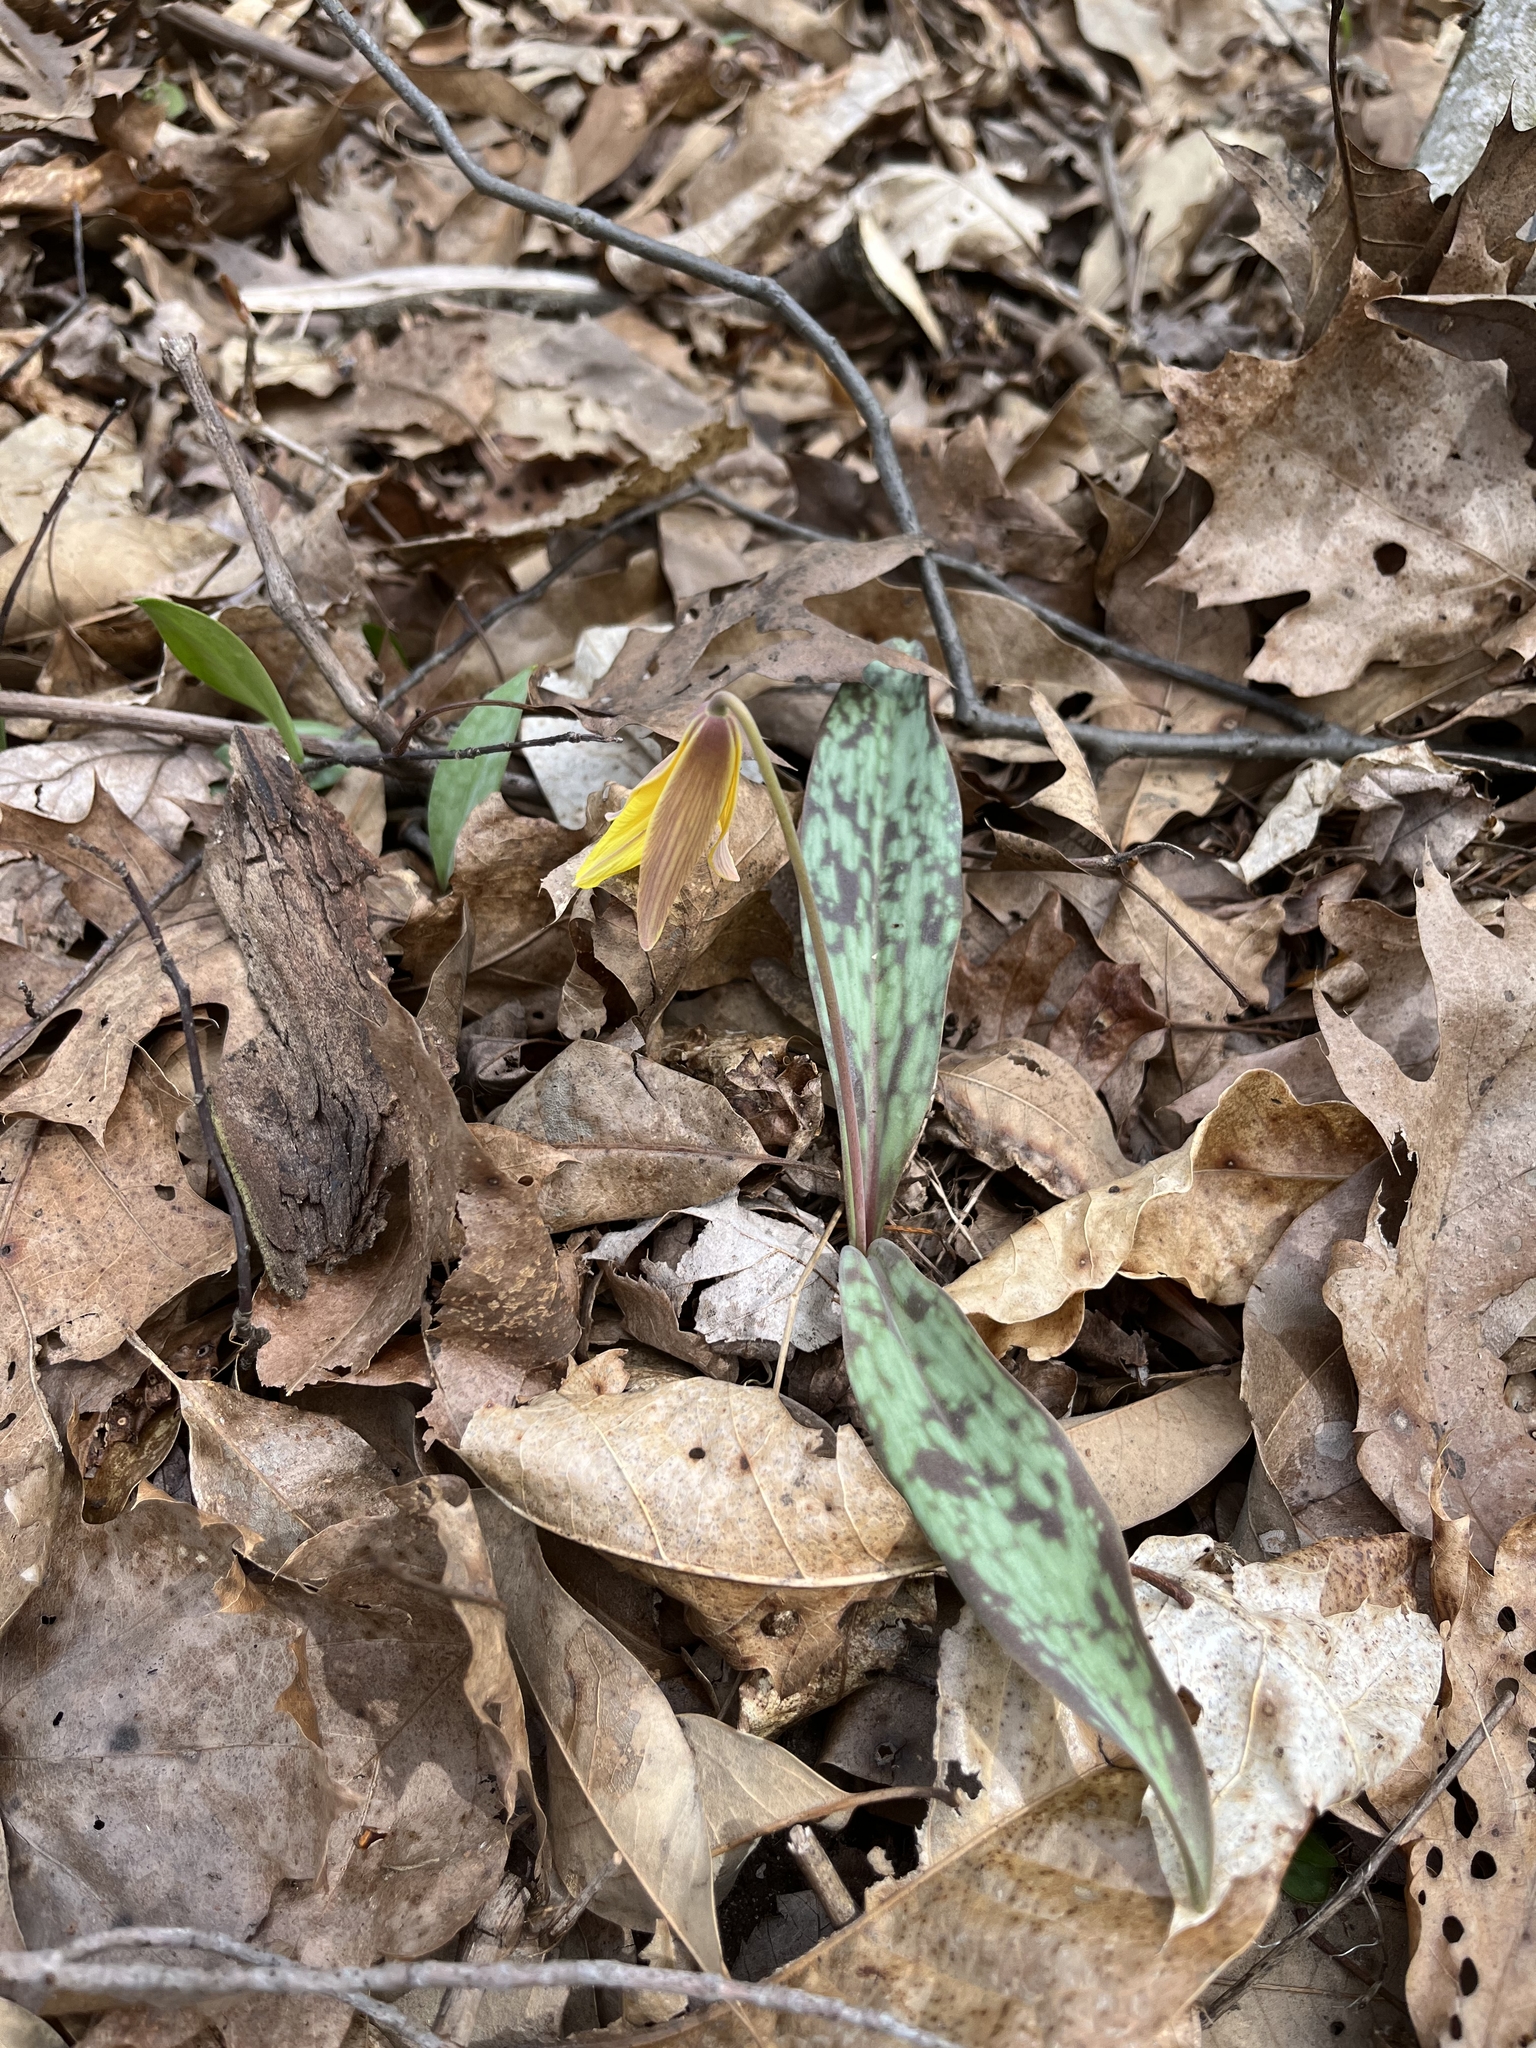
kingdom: Plantae
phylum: Tracheophyta
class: Liliopsida
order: Liliales
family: Liliaceae
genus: Erythronium
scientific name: Erythronium americanum
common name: Yellow adder's-tongue
